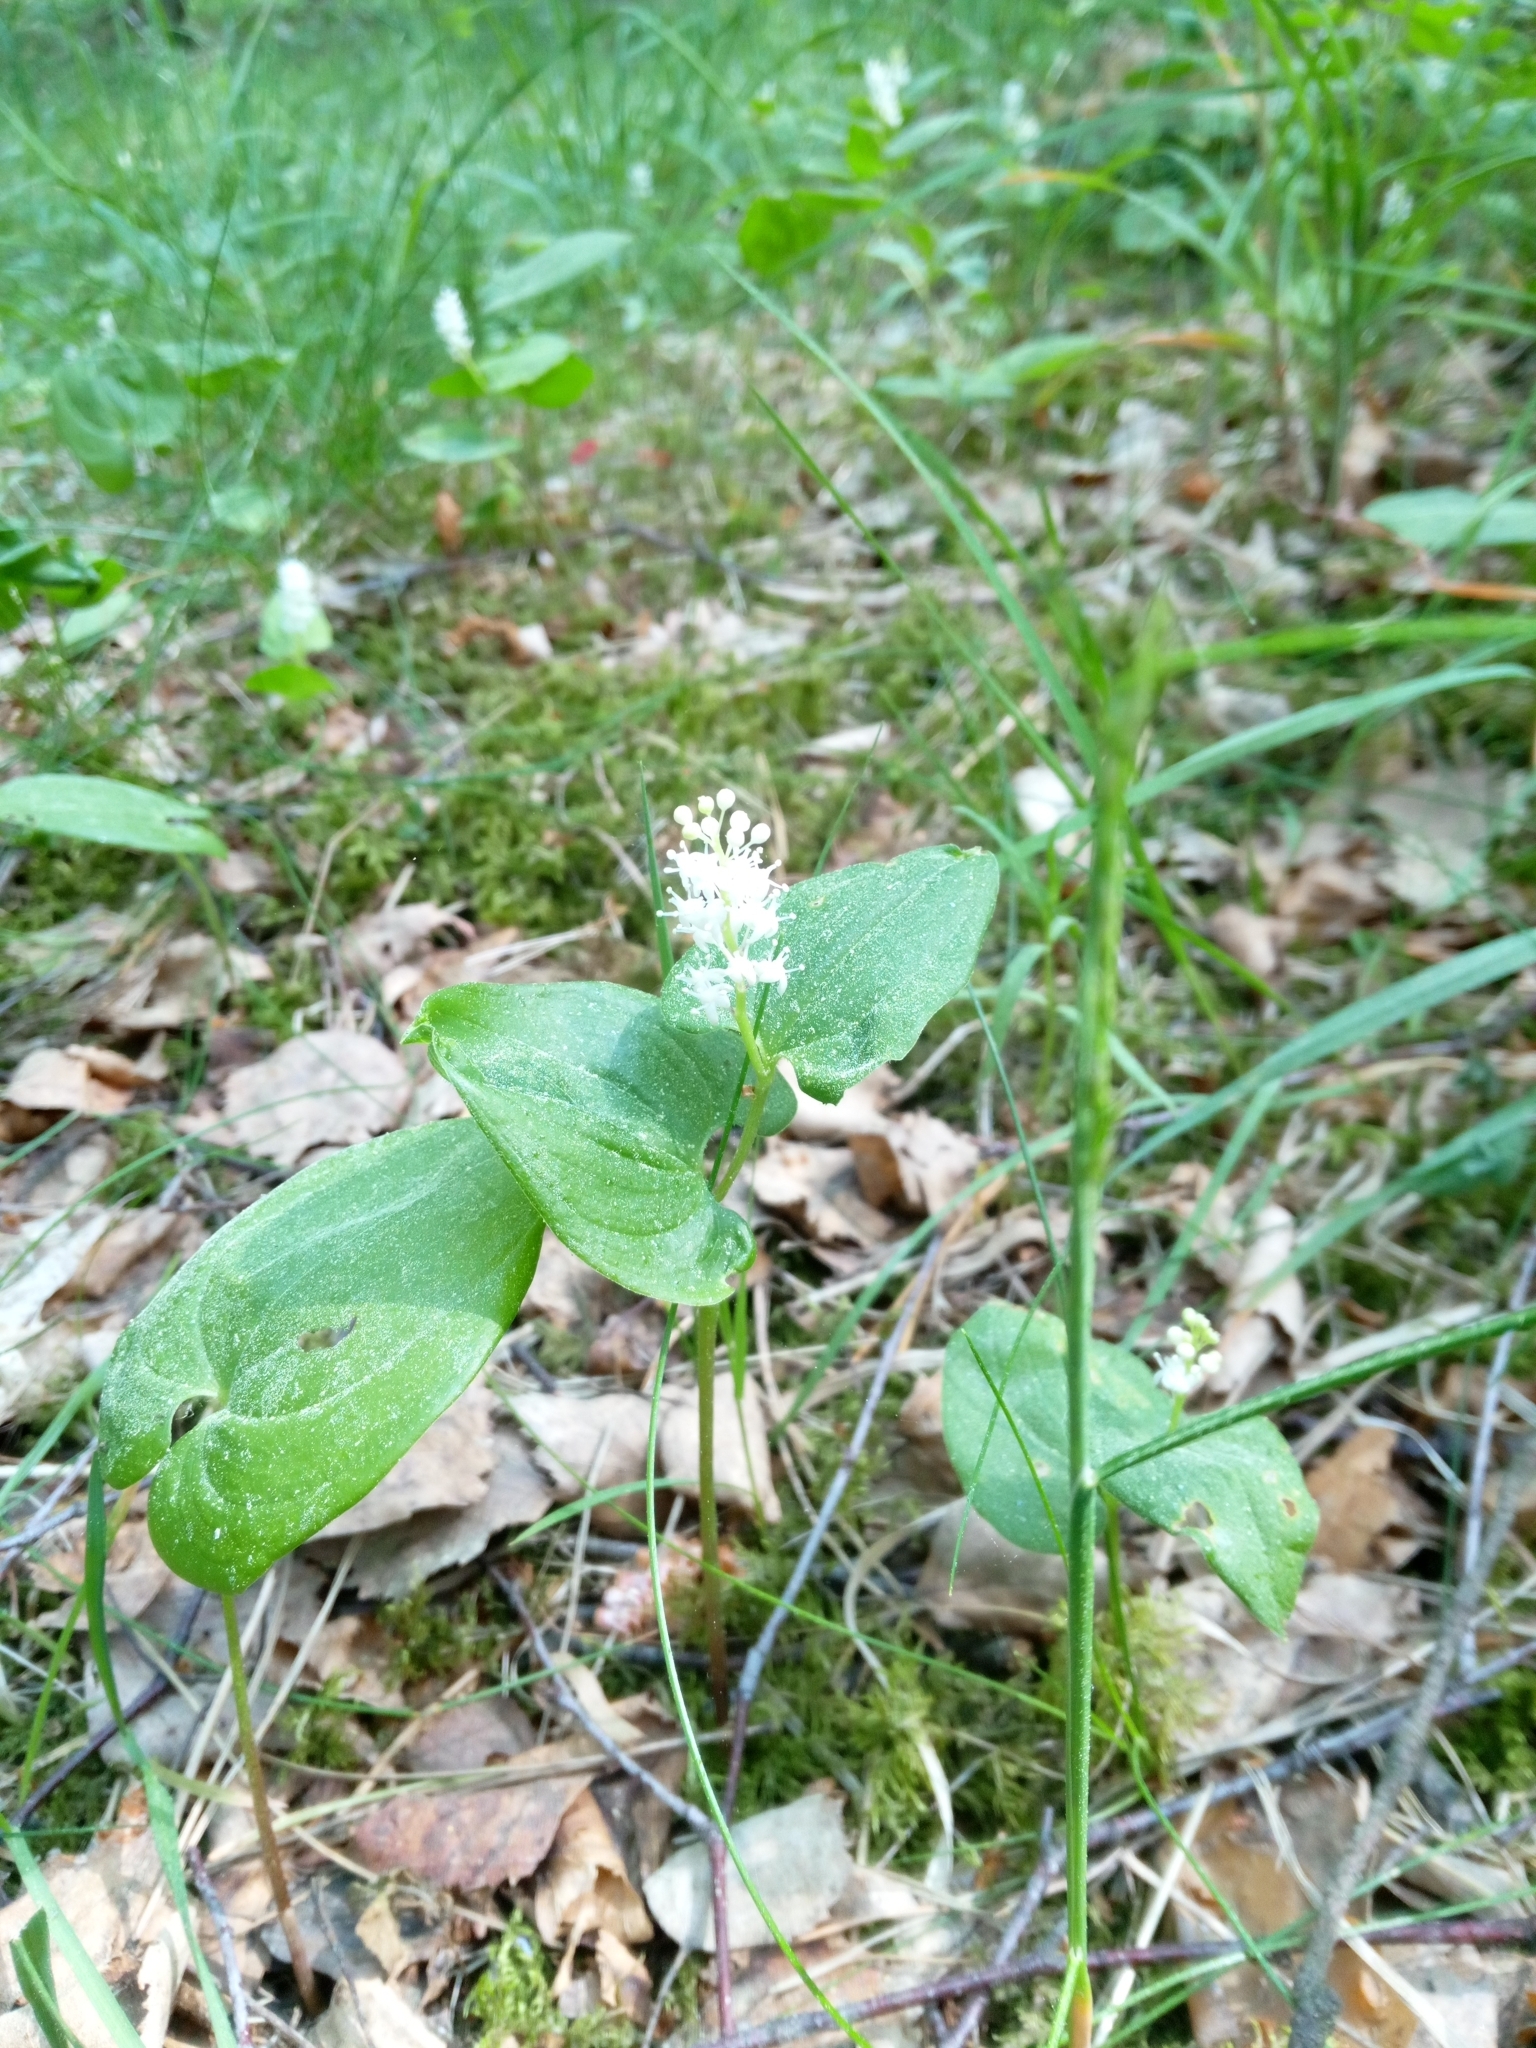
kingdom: Plantae
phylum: Tracheophyta
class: Liliopsida
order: Asparagales
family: Asparagaceae
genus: Maianthemum
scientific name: Maianthemum bifolium
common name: May lily
